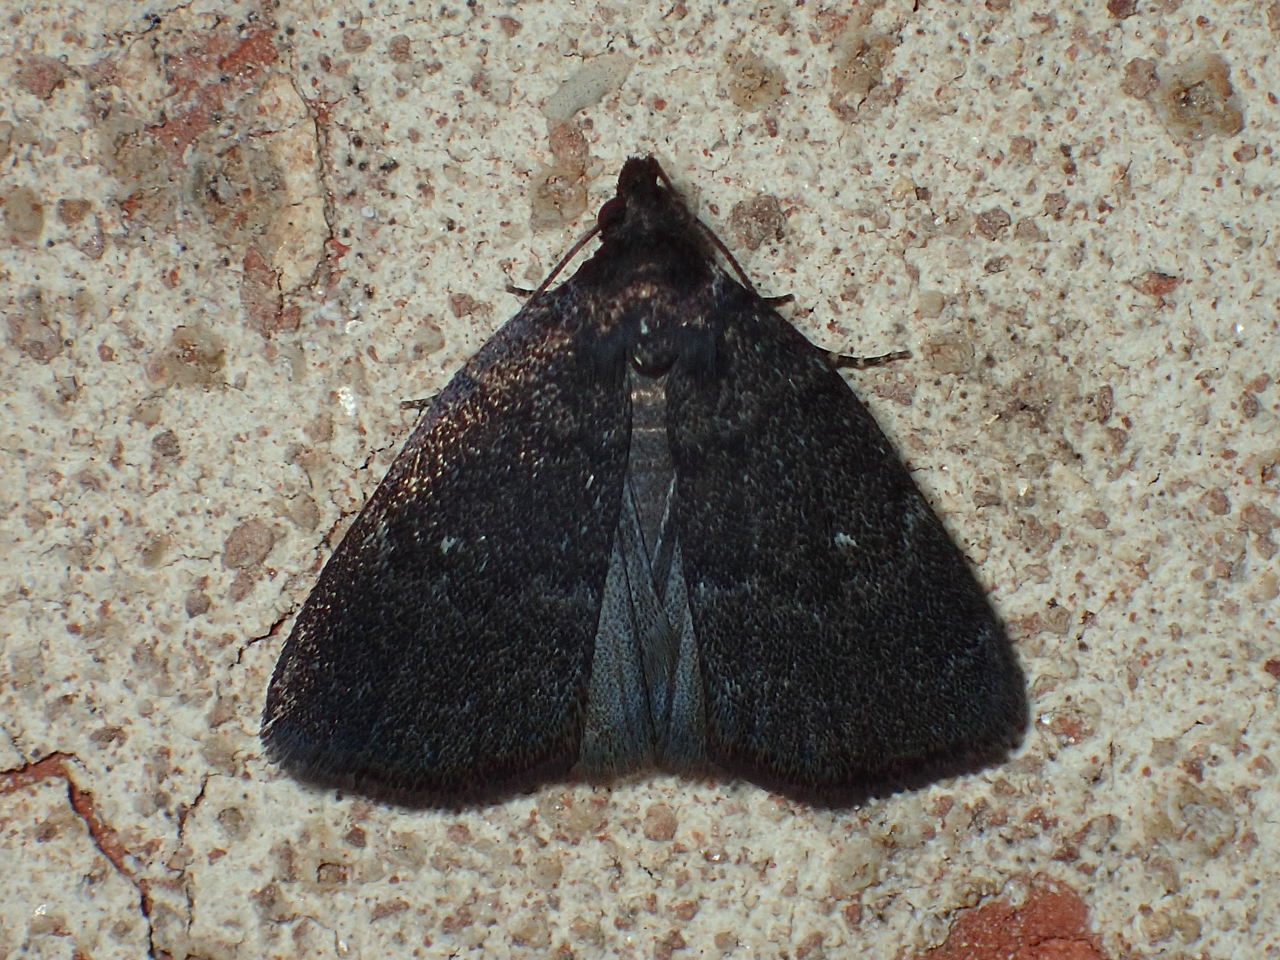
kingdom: Animalia
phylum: Arthropoda
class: Insecta
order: Lepidoptera
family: Erebidae
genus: Idia
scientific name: Idia rotundalis
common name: Rotund idia moth
